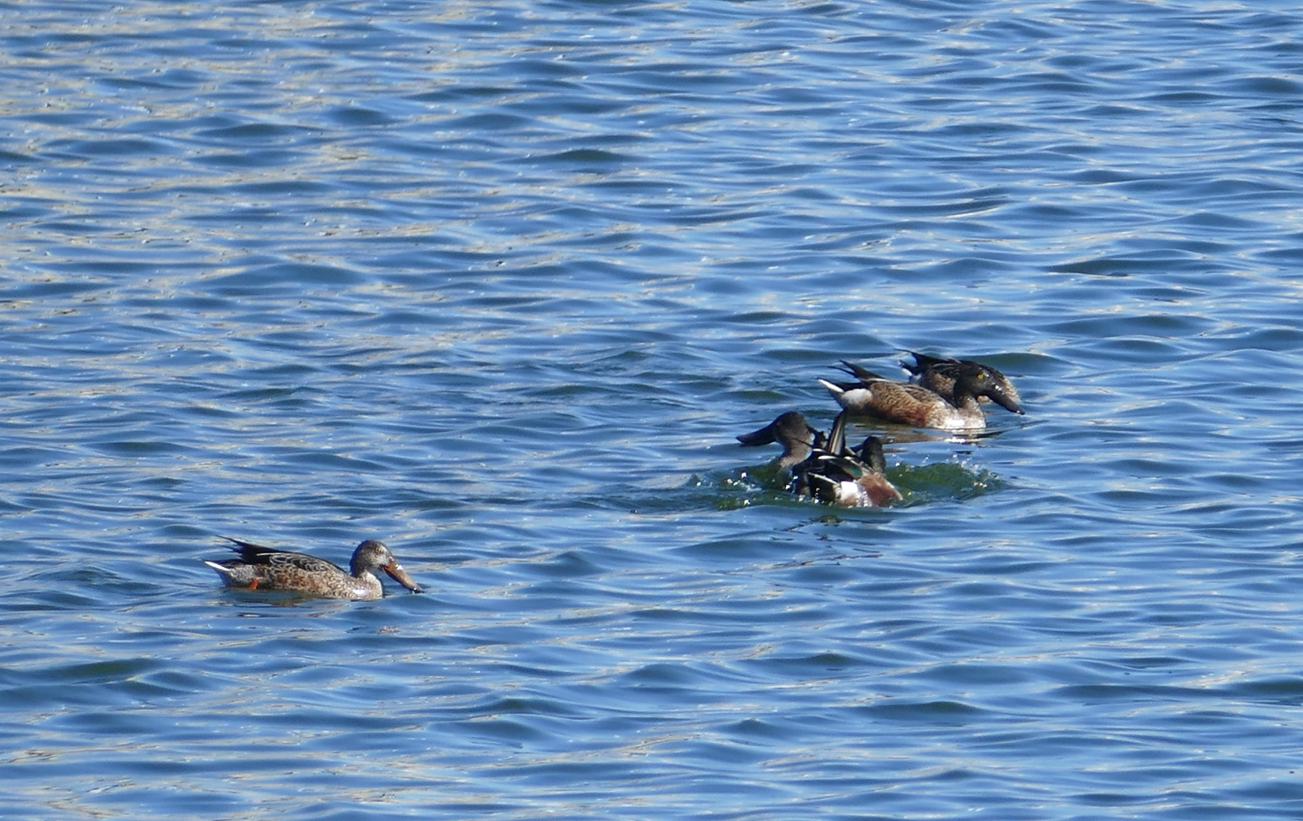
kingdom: Animalia
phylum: Chordata
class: Aves
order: Anseriformes
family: Anatidae
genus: Spatula
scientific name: Spatula clypeata
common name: Northern shoveler
